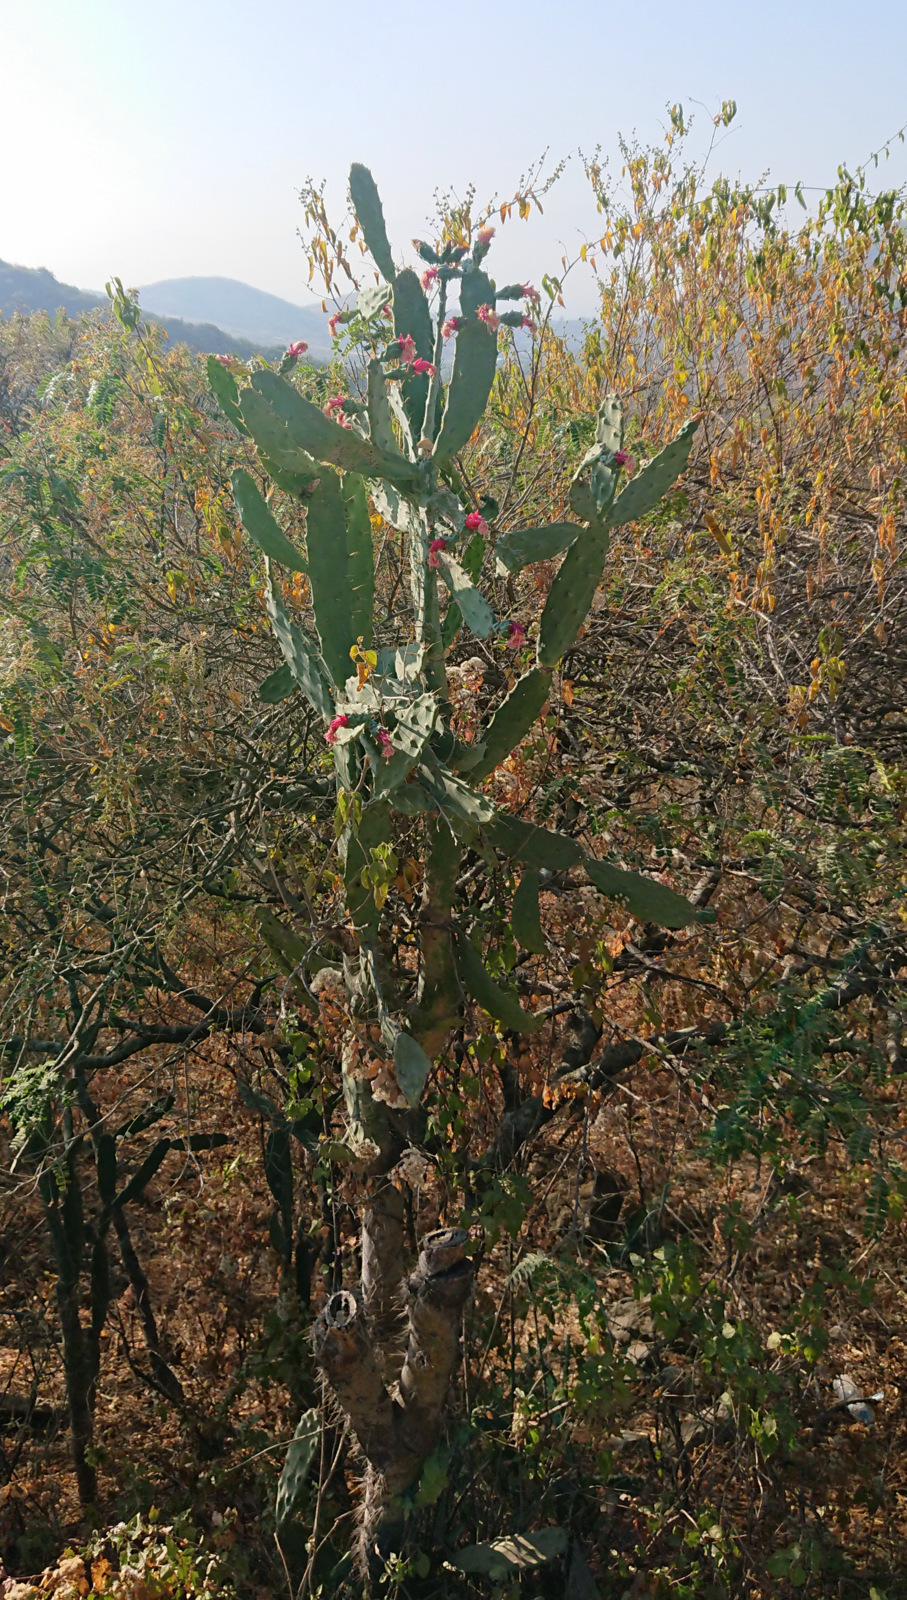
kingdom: Plantae
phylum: Tracheophyta
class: Magnoliopsida
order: Caryophyllales
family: Cactaceae
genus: Opuntia
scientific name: Opuntia hyptiacantha
